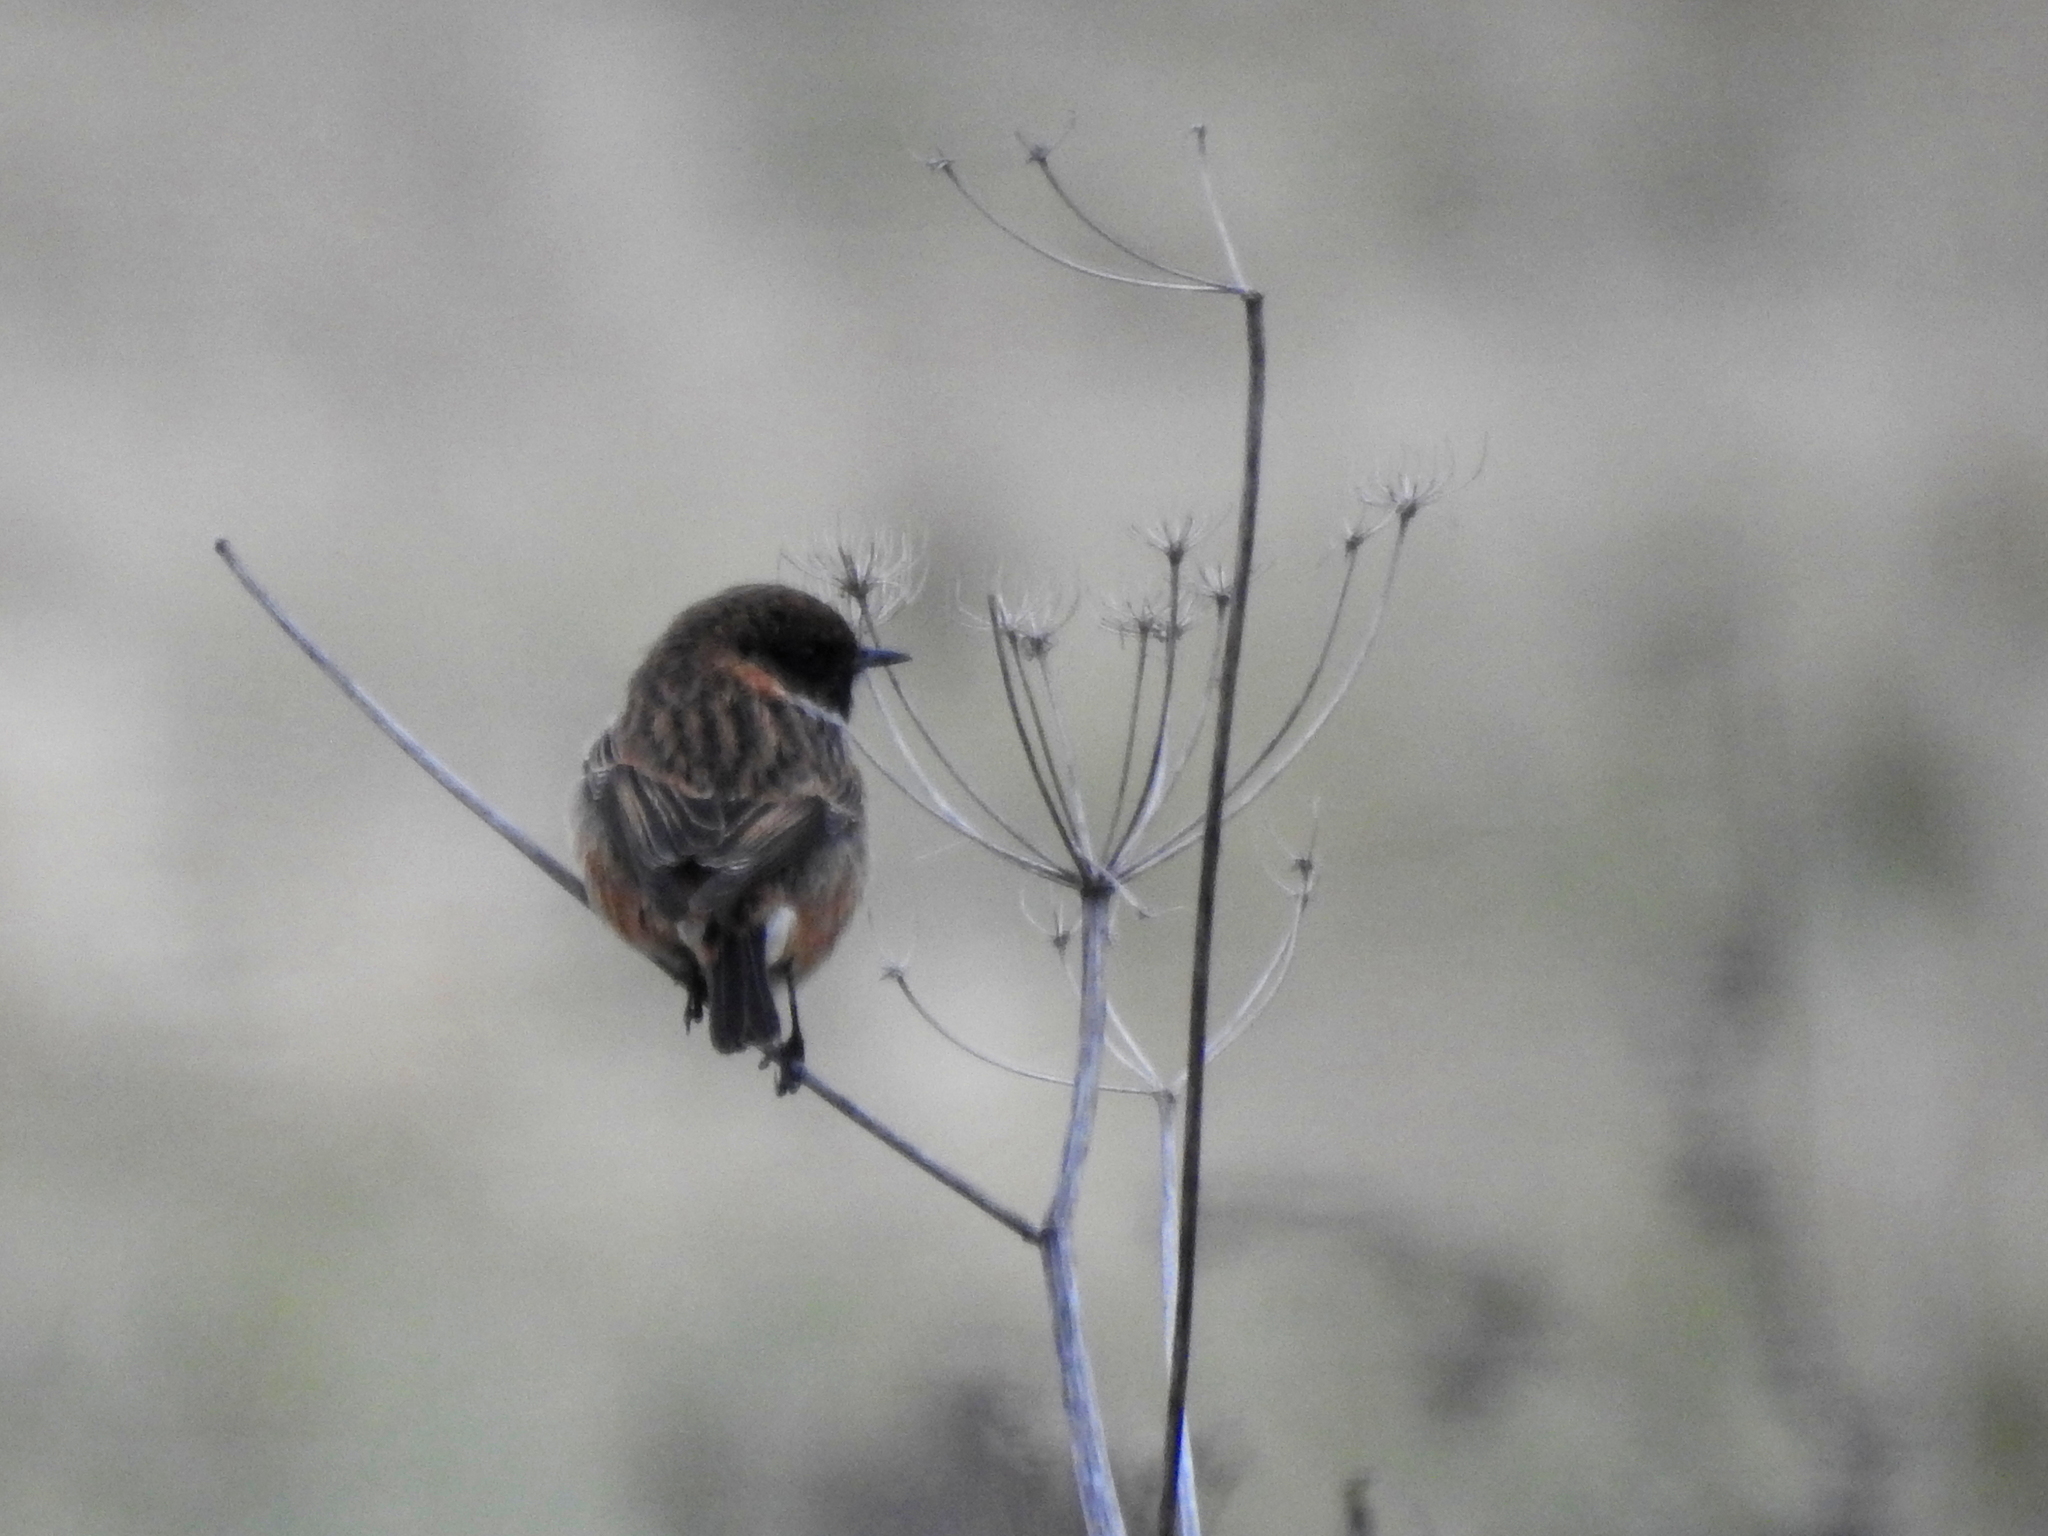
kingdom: Animalia
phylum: Chordata
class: Aves
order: Passeriformes
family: Muscicapidae
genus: Saxicola
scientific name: Saxicola rubicola
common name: European stonechat
